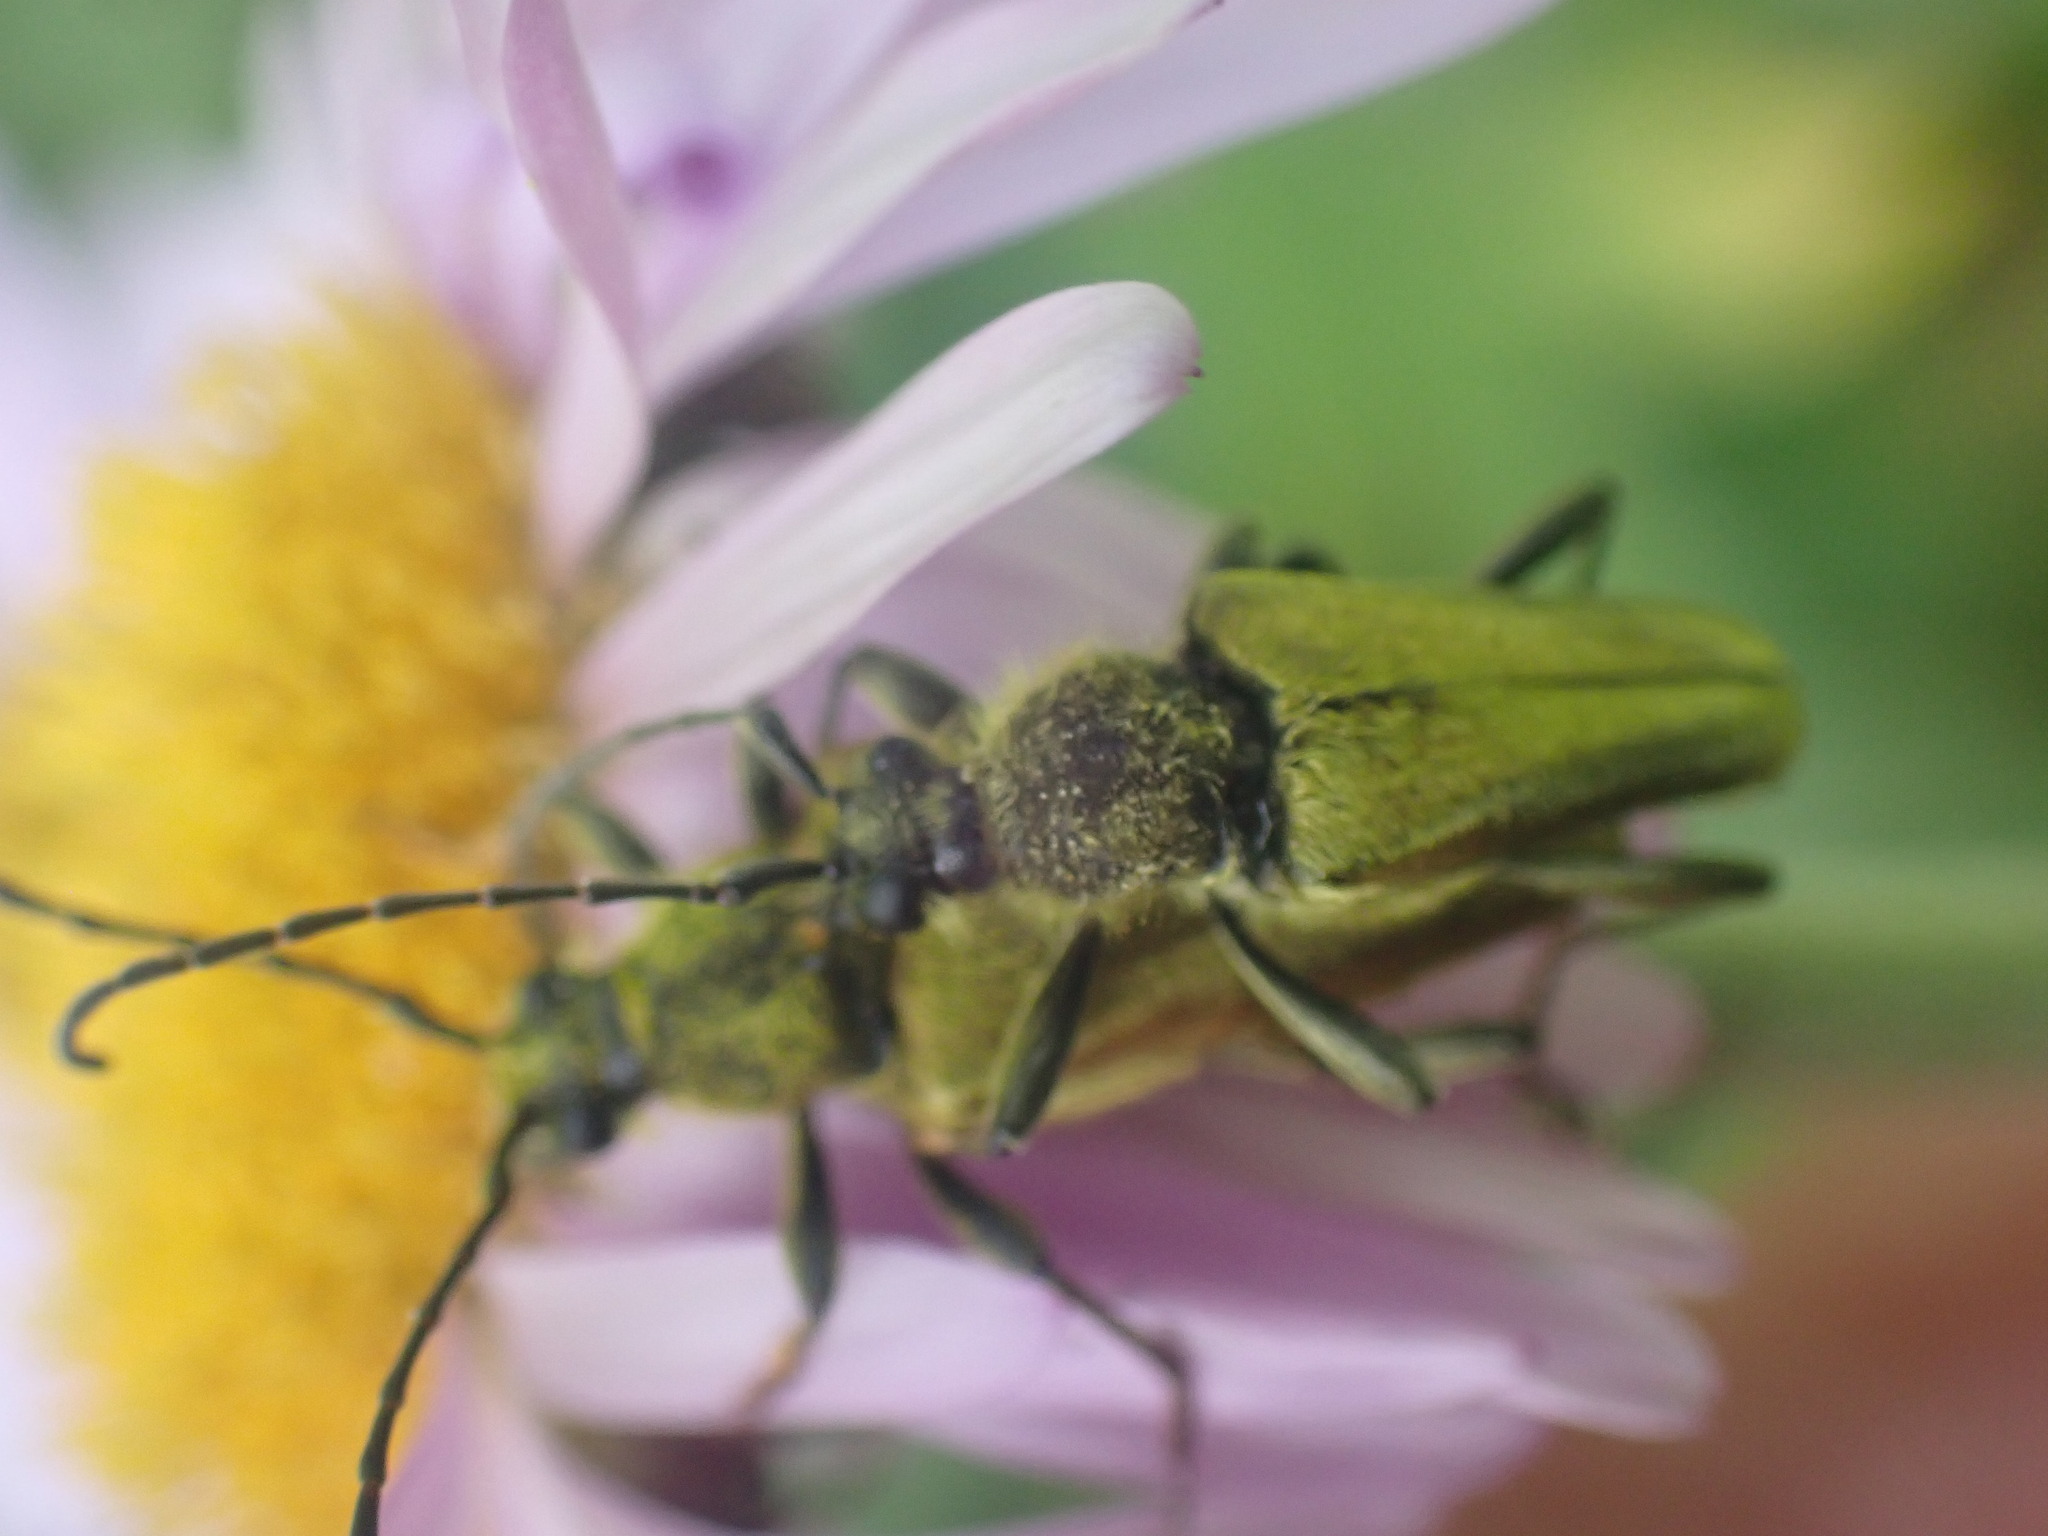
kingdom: Animalia
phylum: Arthropoda
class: Insecta
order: Coleoptera
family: Cerambycidae
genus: Cosmosalia
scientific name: Cosmosalia chrysocoma
